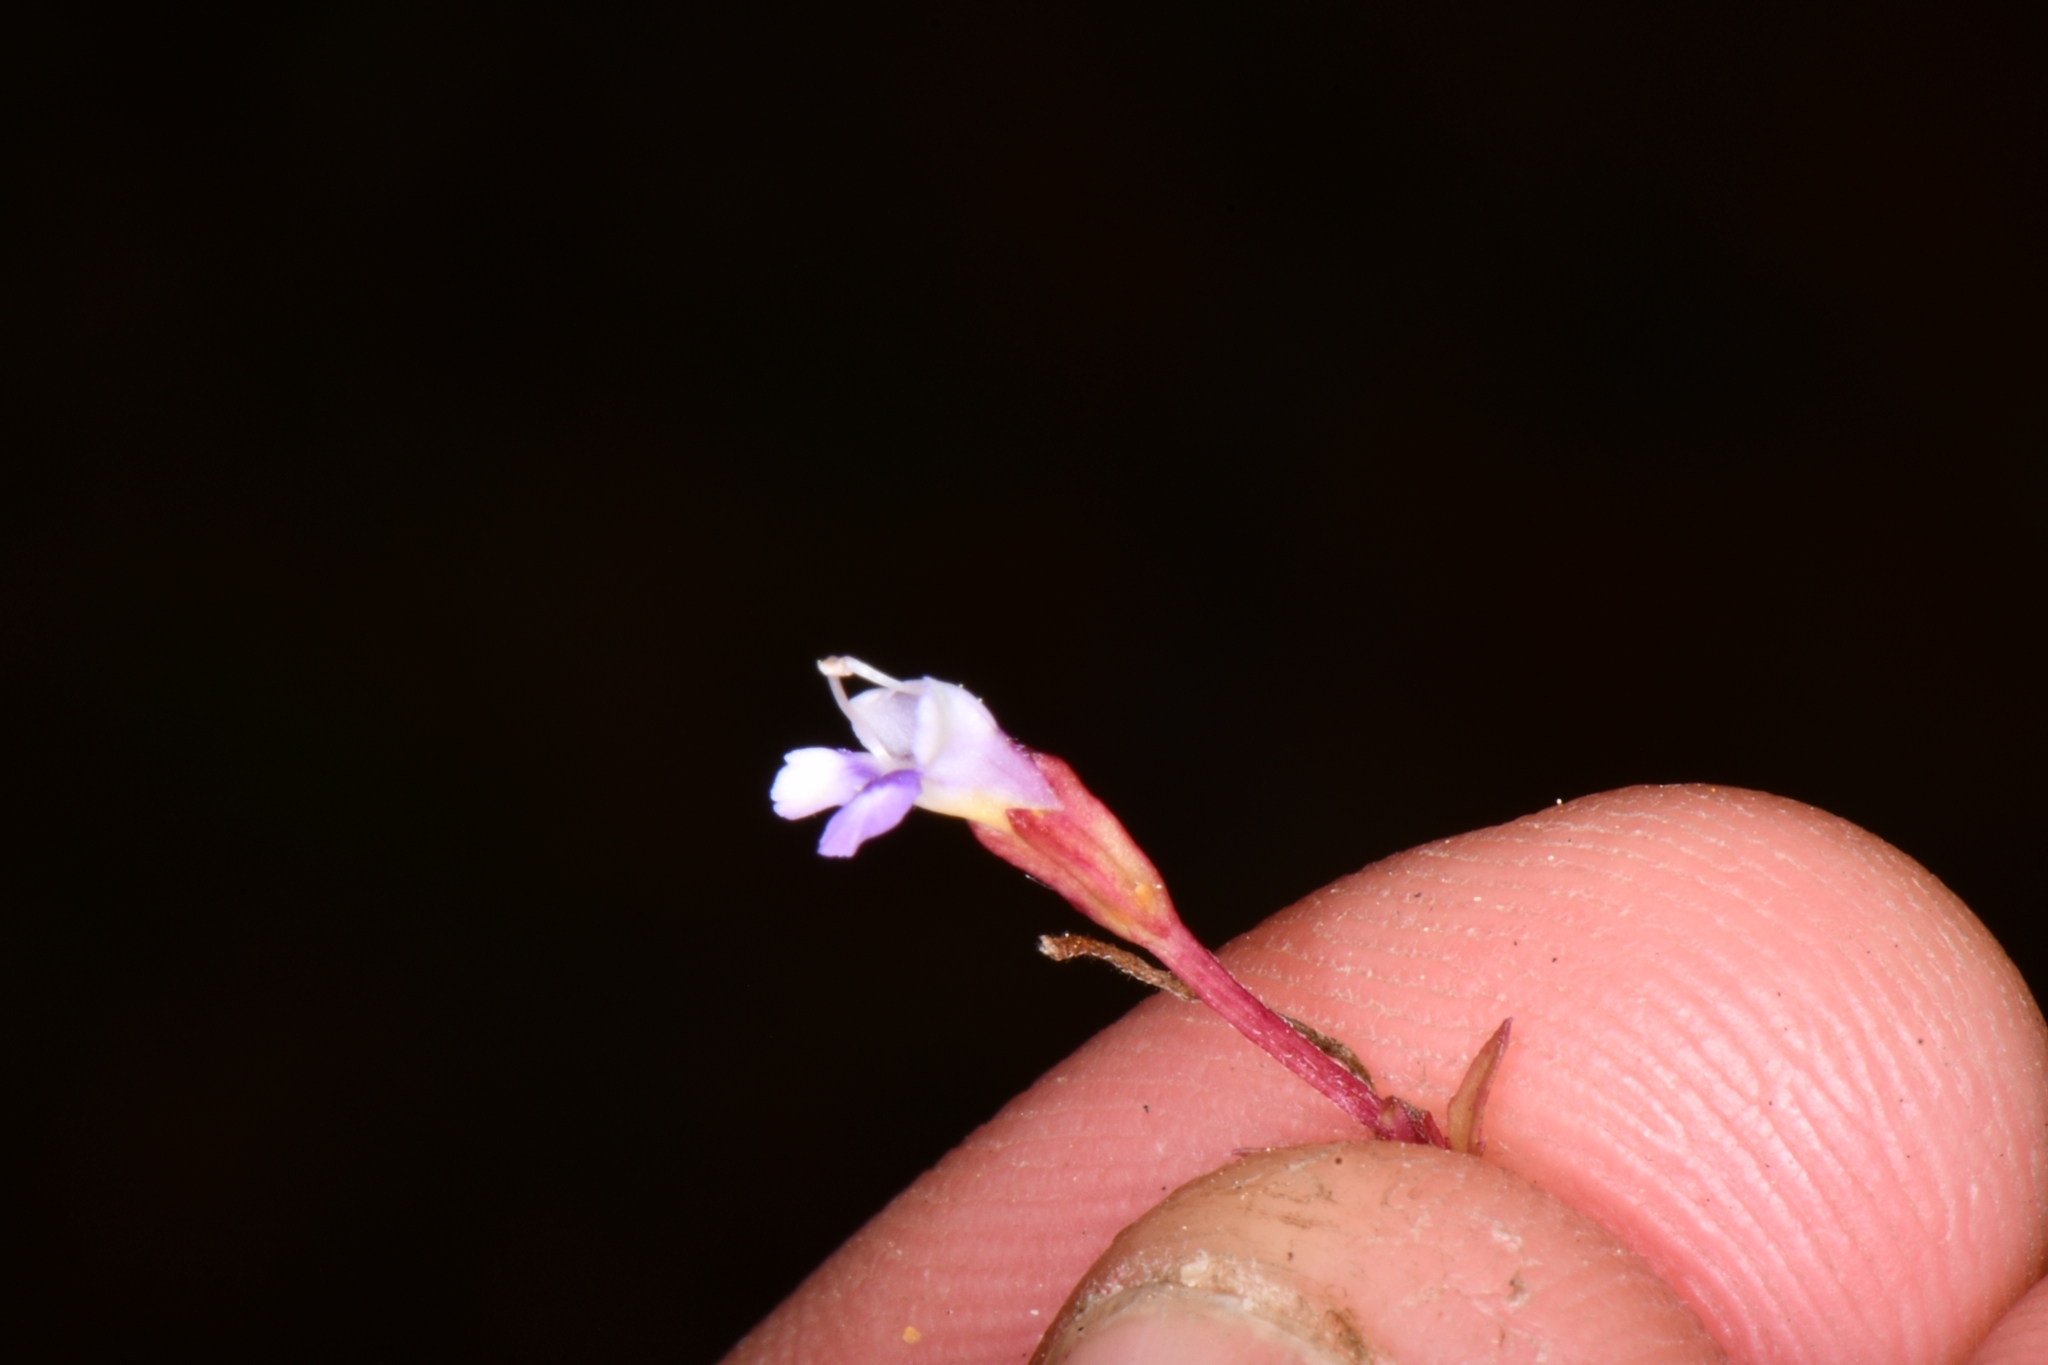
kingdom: Plantae
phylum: Tracheophyta
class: Magnoliopsida
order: Lamiales
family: Linderniaceae
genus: Torenia
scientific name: Torenia crustacea
